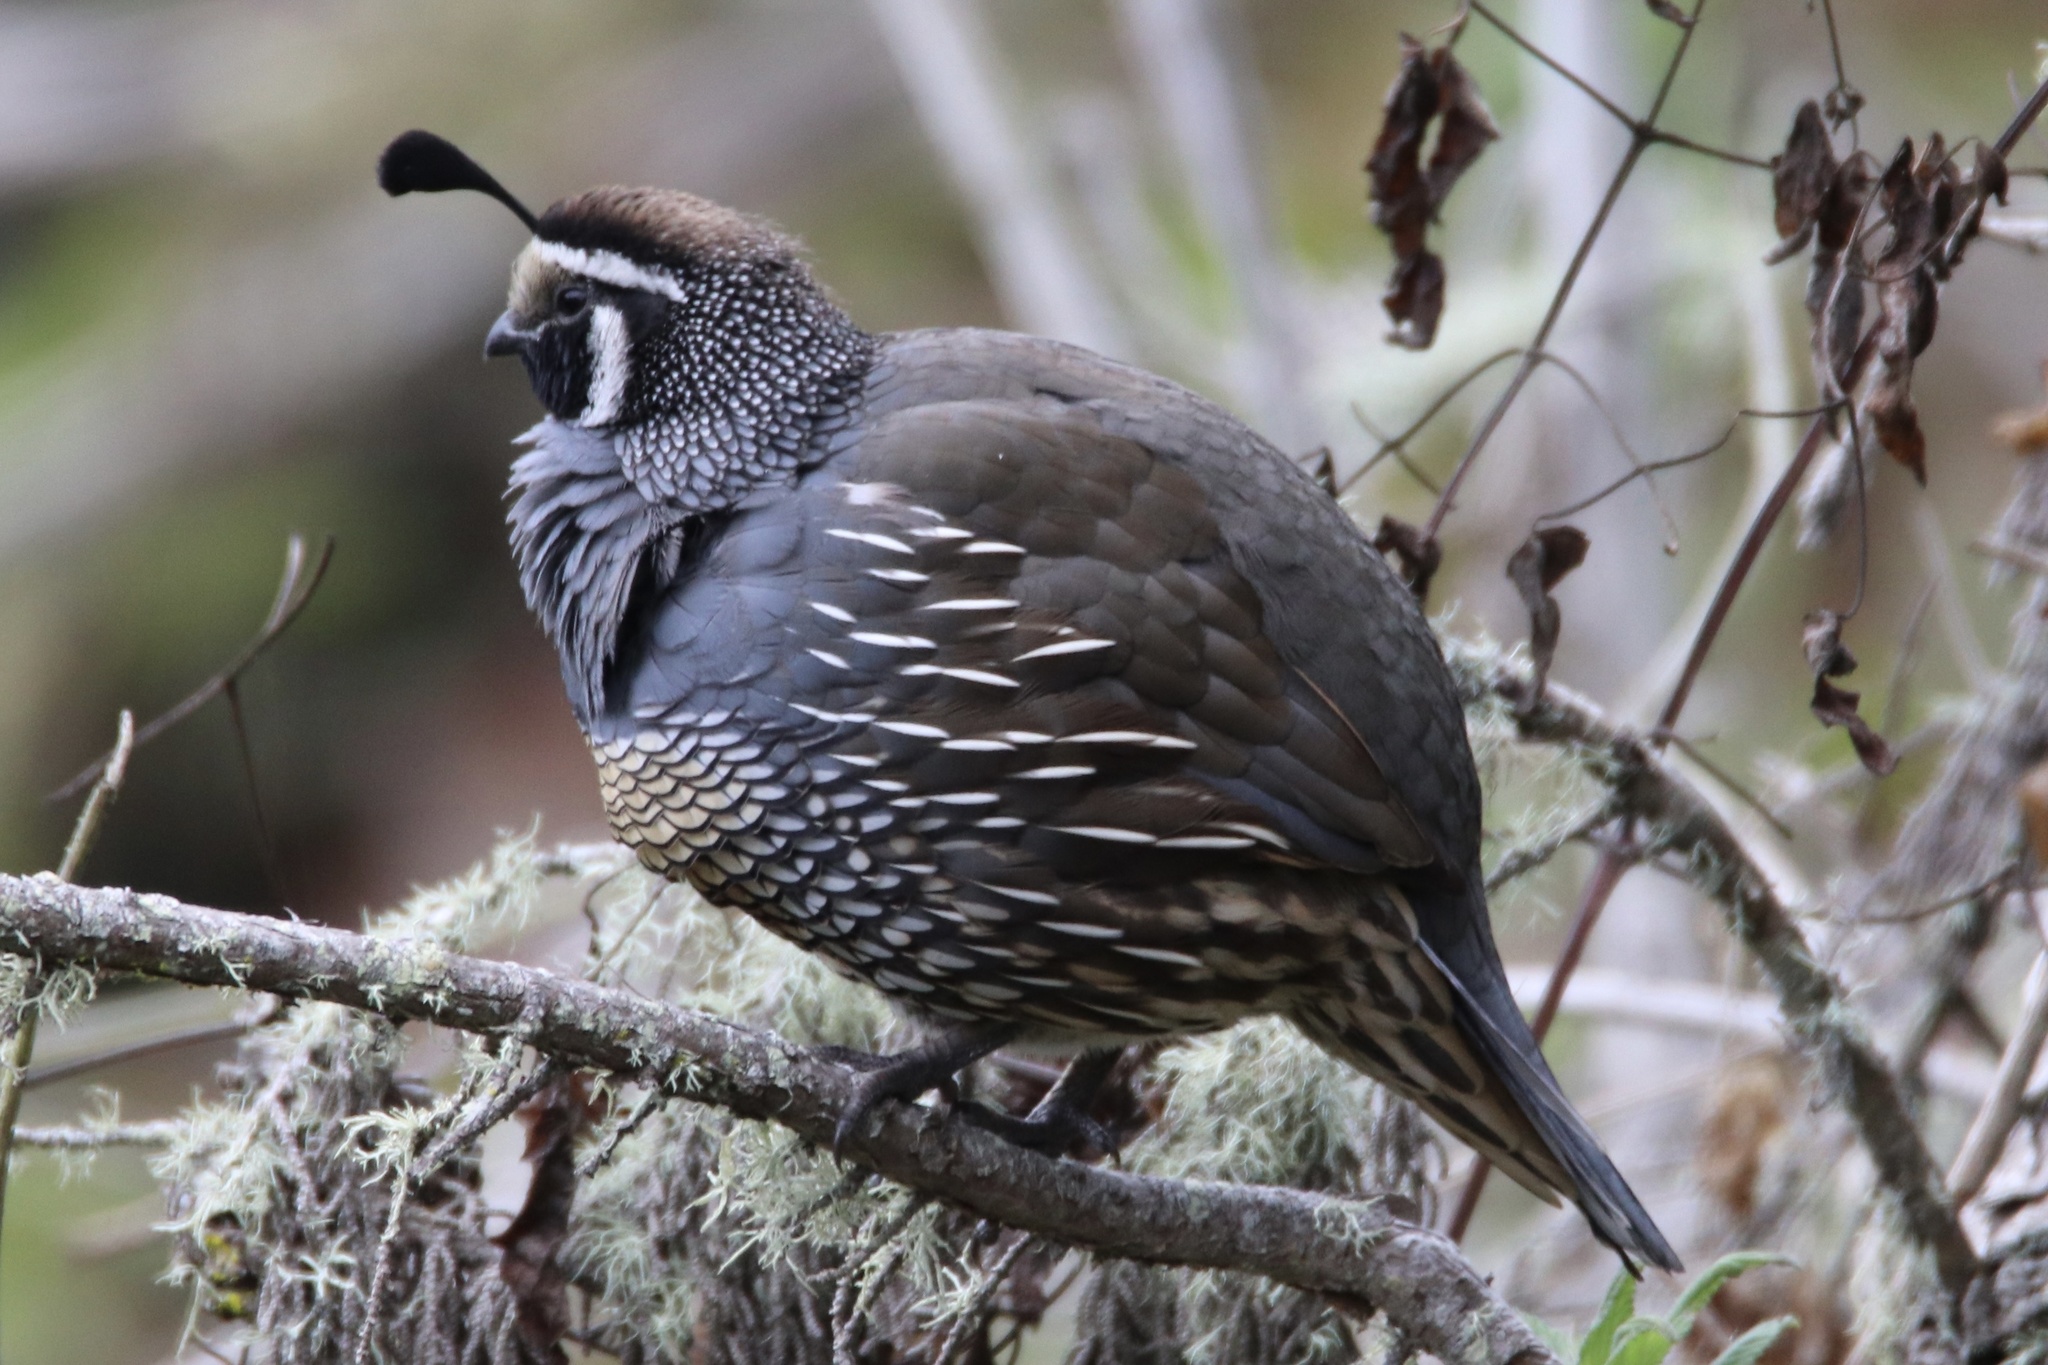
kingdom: Animalia
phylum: Chordata
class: Aves
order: Galliformes
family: Odontophoridae
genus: Callipepla
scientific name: Callipepla californica
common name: California quail
